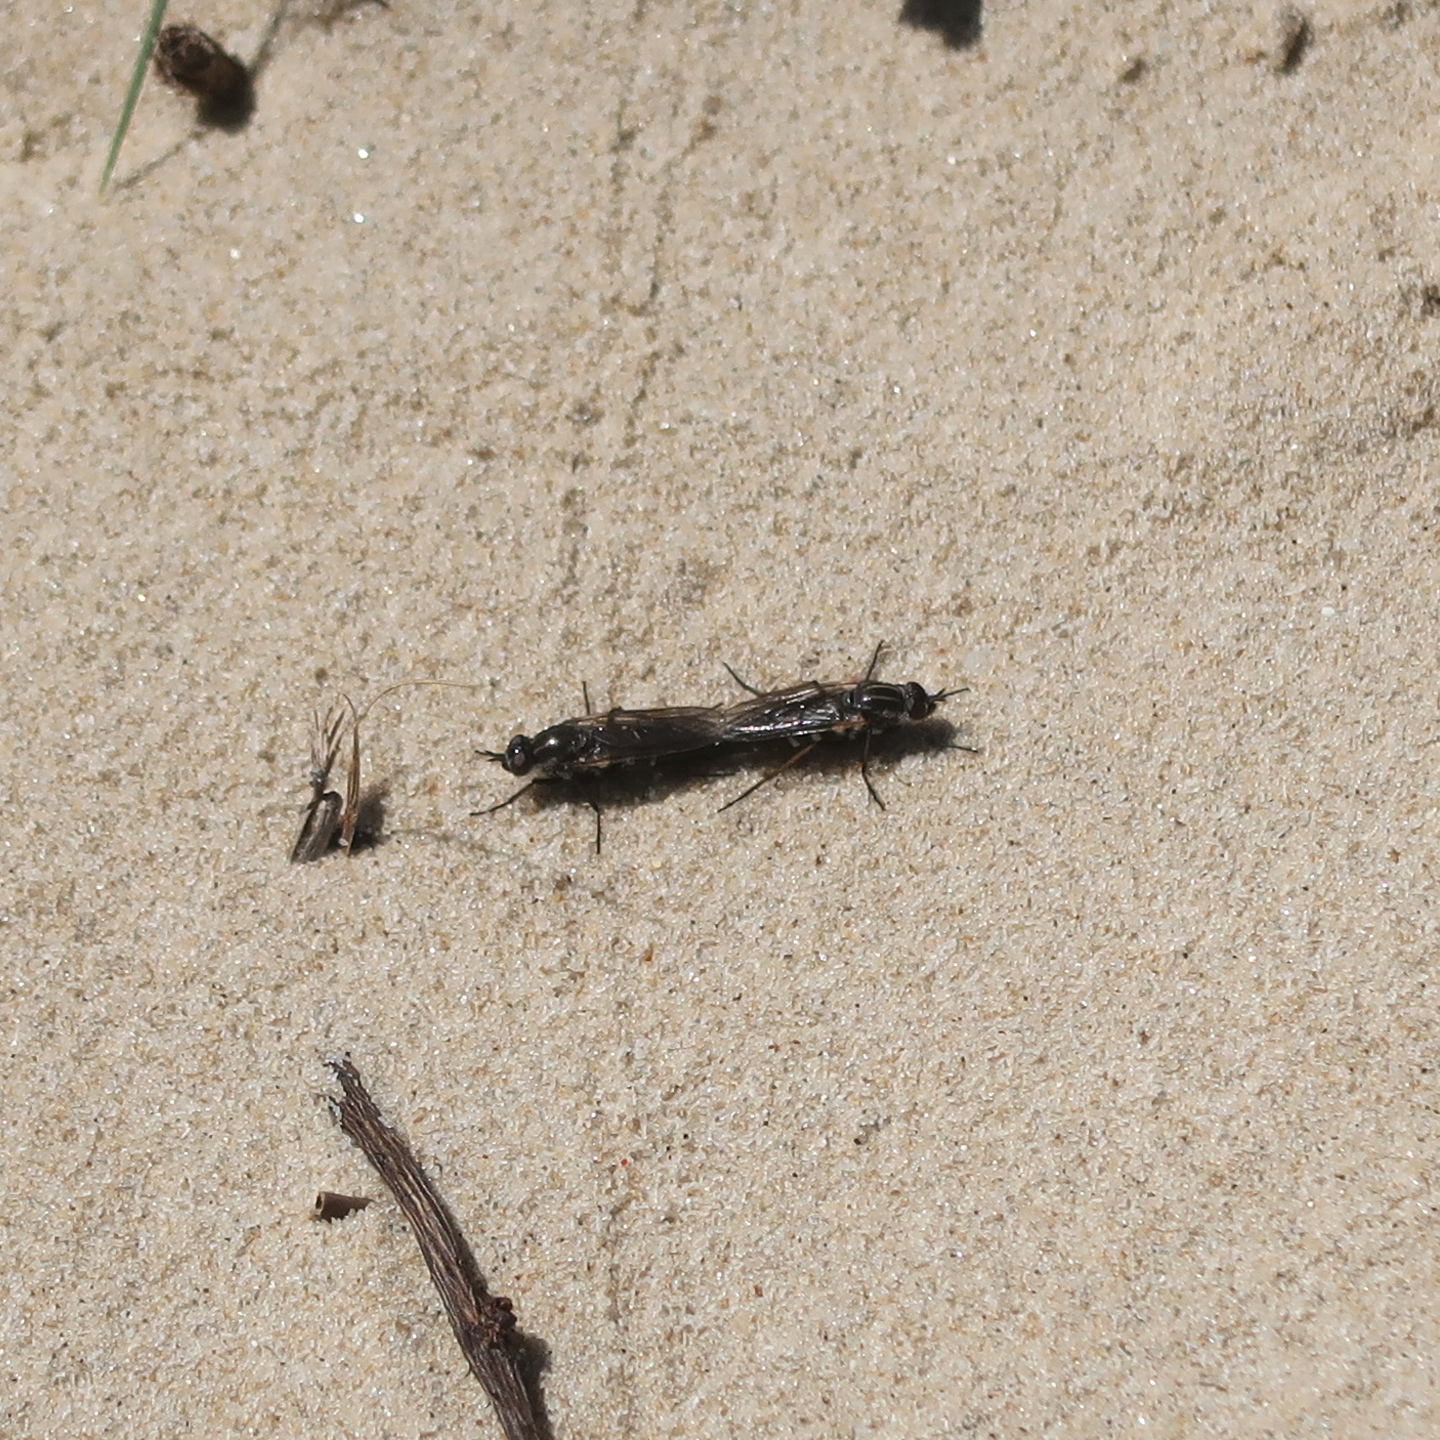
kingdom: Animalia
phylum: Arthropoda
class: Insecta
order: Diptera
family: Therevidae
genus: Anabarhynchus
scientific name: Anabarhynchus hyalipennis
